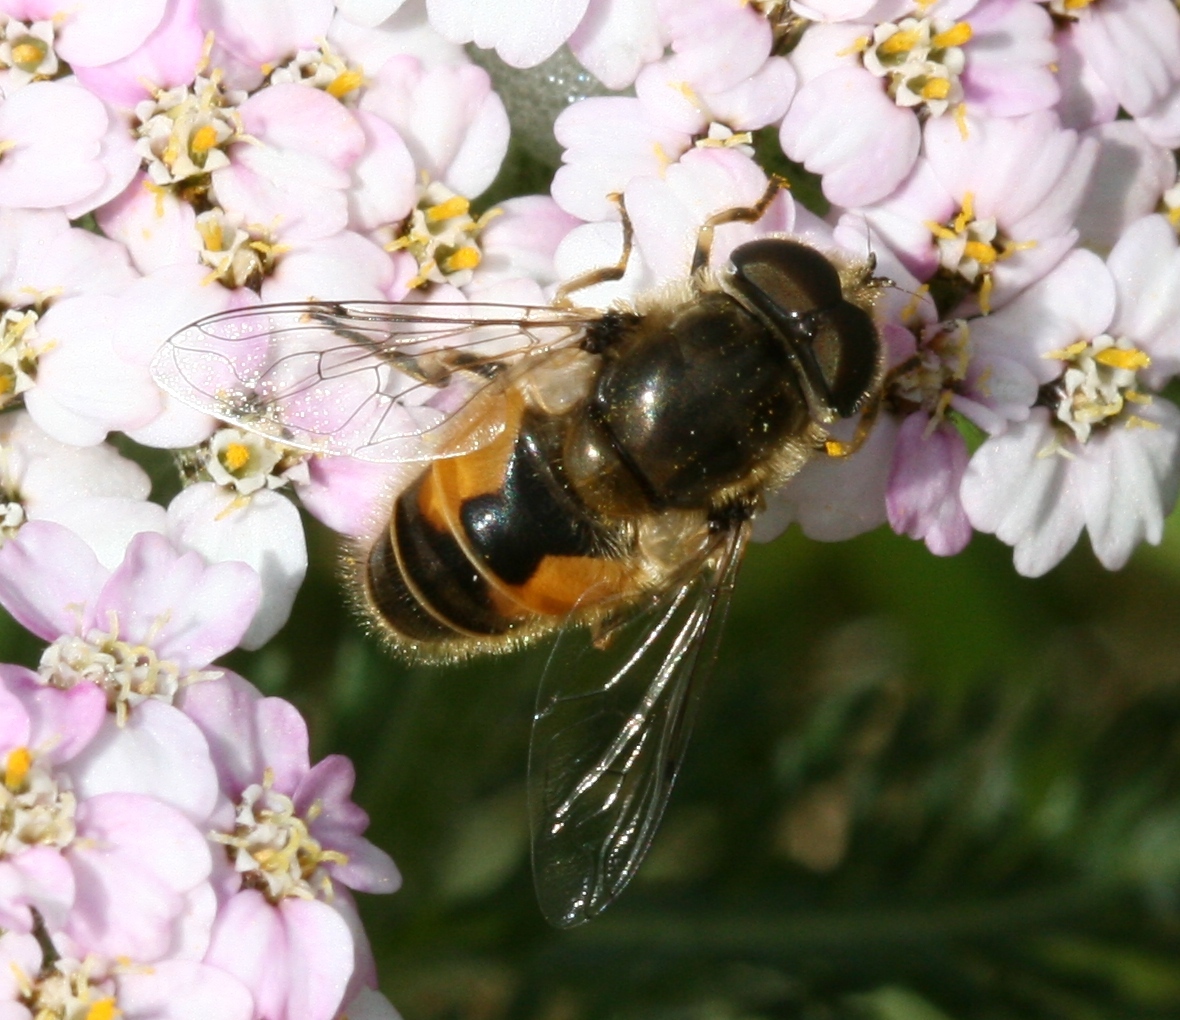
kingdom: Animalia
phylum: Arthropoda
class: Insecta
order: Diptera
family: Syrphidae
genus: Eristalis
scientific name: Eristalis arbustorum
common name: Hover fly
